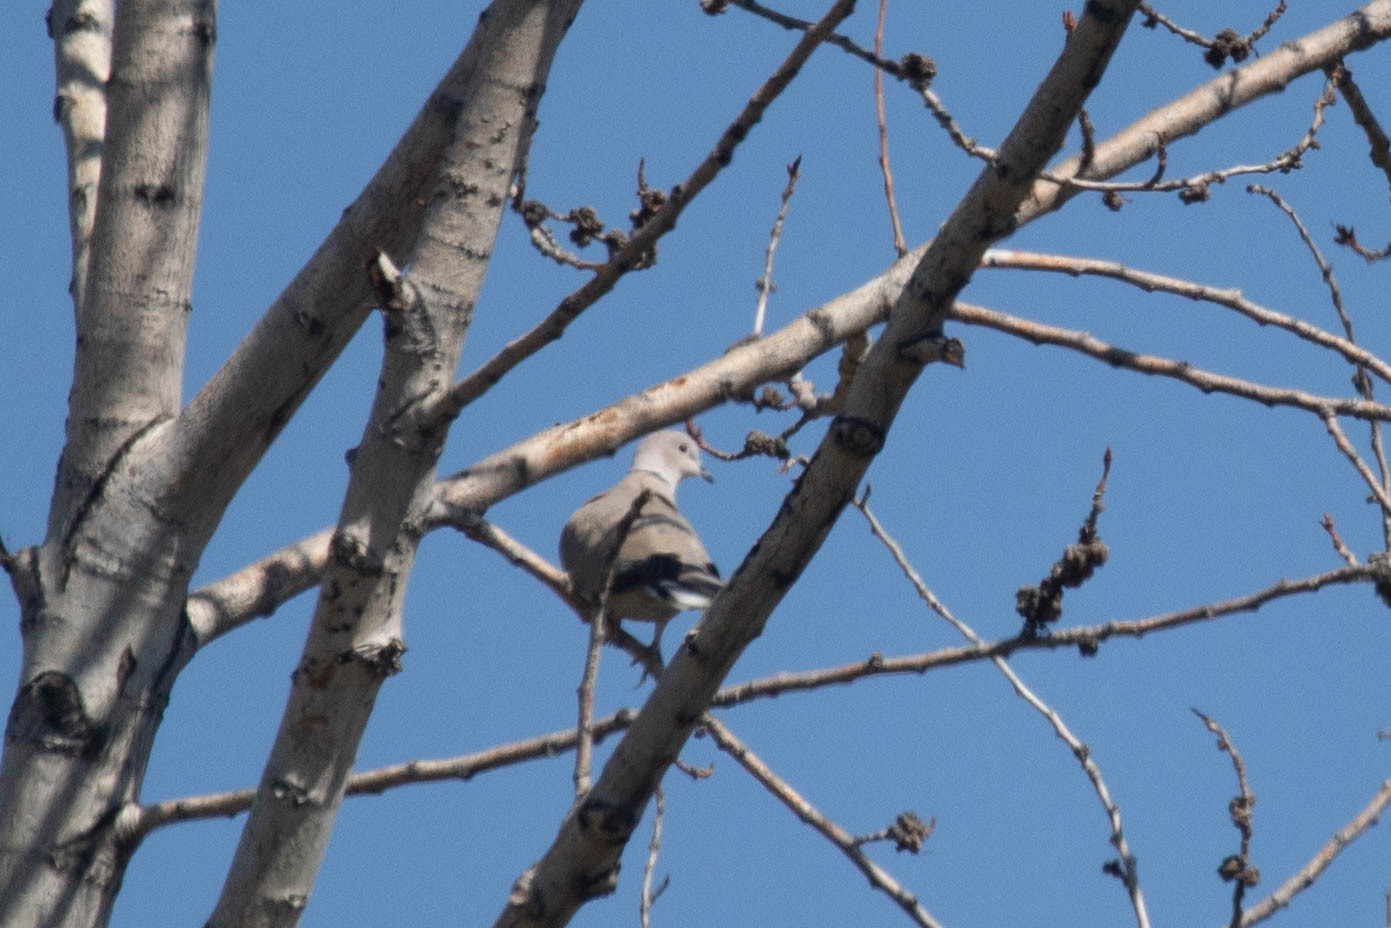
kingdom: Animalia
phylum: Chordata
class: Aves
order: Columbiformes
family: Columbidae
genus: Streptopelia
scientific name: Streptopelia decaocto
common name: Eurasian collared dove
